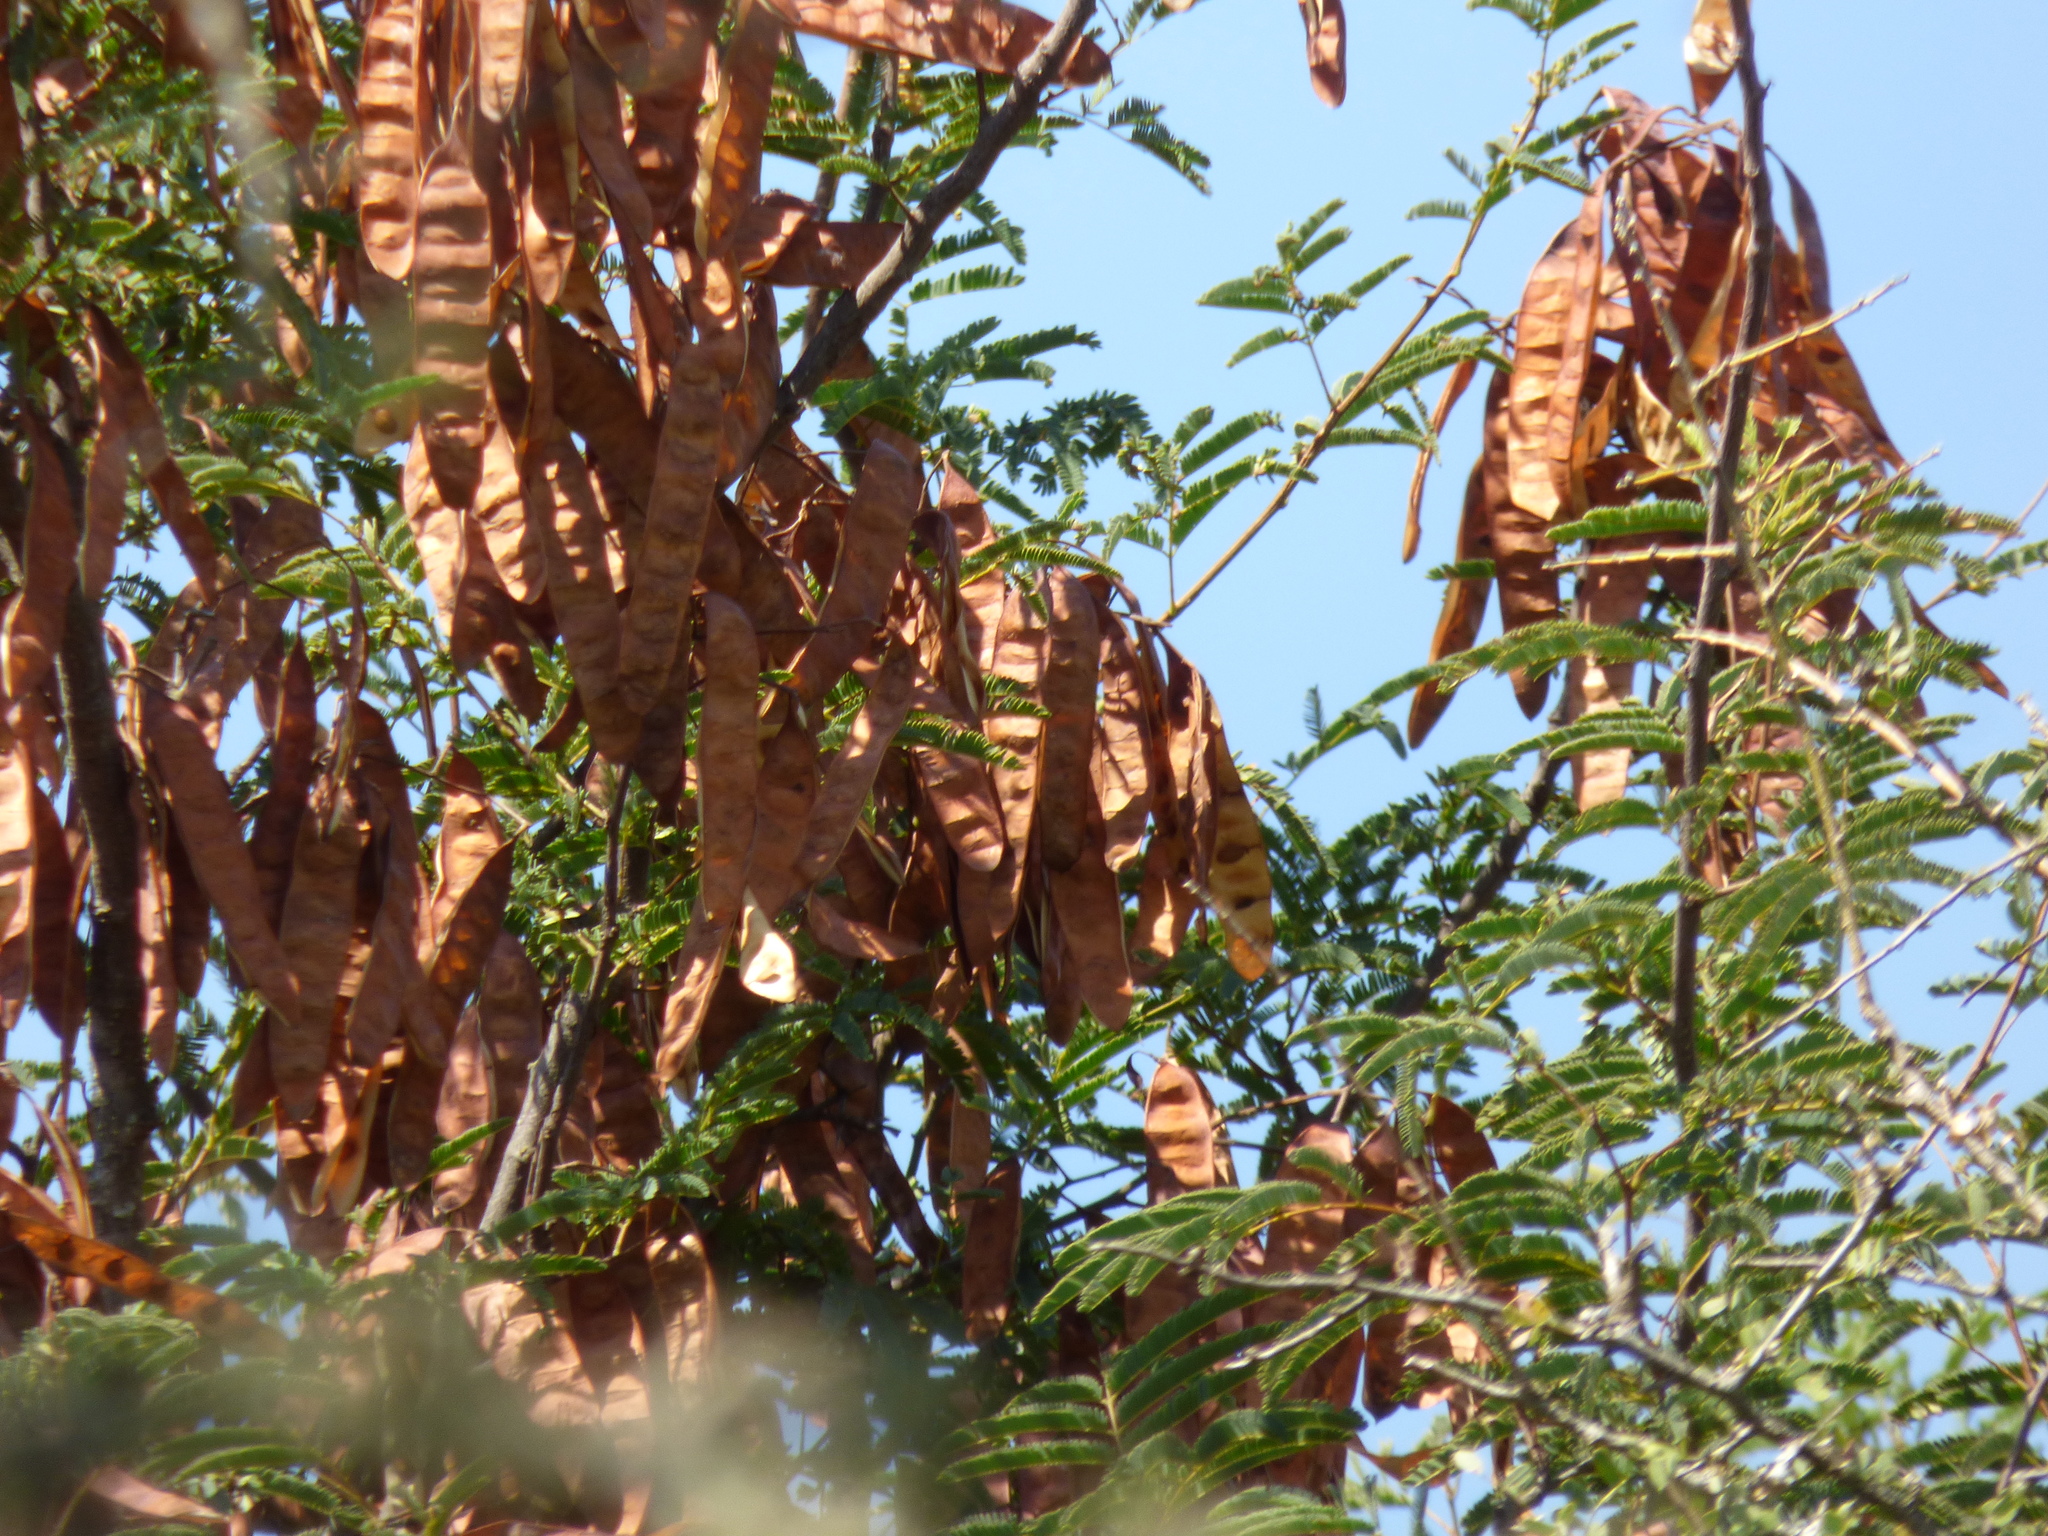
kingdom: Plantae
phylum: Tracheophyta
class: Magnoliopsida
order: Fabales
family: Fabaceae
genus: Senegalia
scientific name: Senegalia praecox
